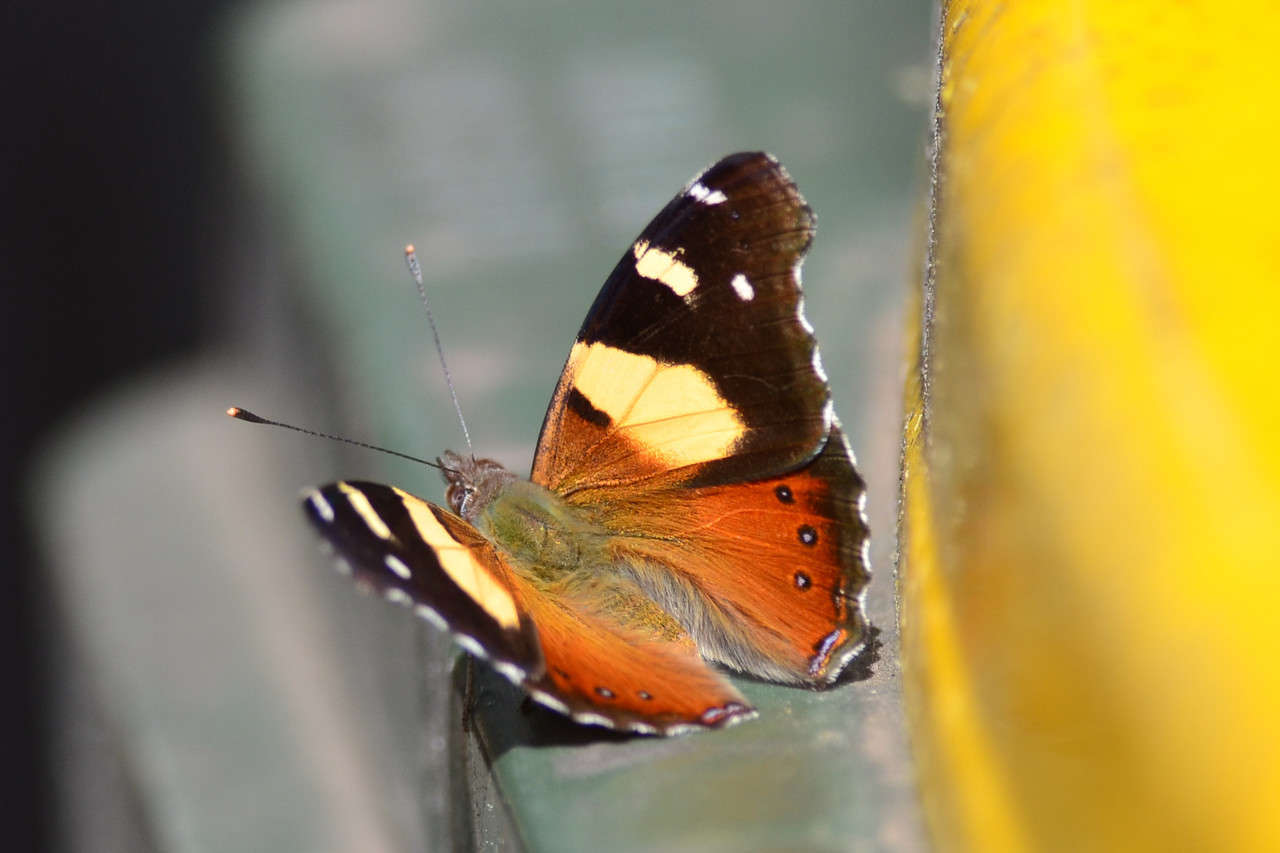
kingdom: Animalia
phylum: Arthropoda
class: Insecta
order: Lepidoptera
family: Nymphalidae
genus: Vanessa
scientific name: Vanessa itea
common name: Yellow admiral
